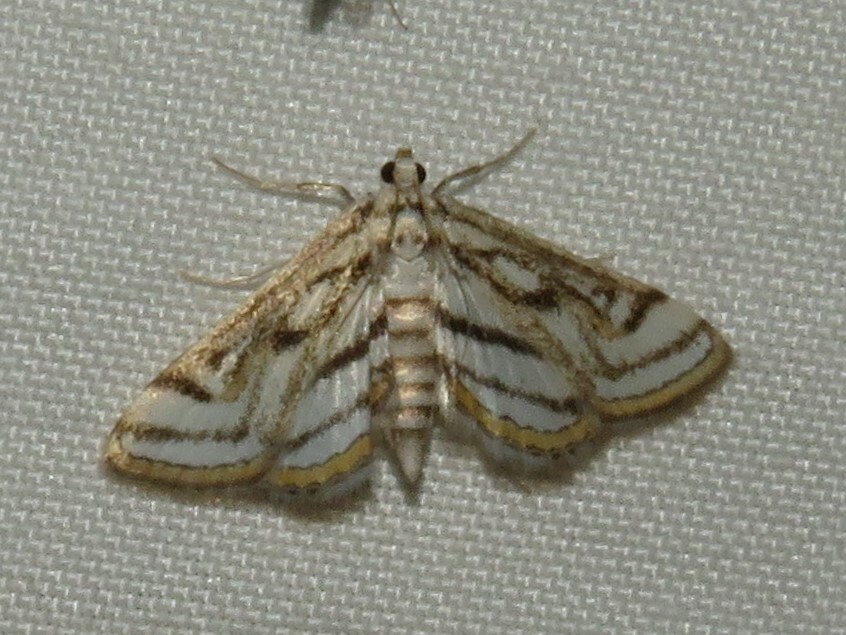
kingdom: Animalia
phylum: Arthropoda
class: Insecta
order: Lepidoptera
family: Crambidae
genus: Parapoynx
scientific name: Parapoynx badiusalis
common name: Chestnut-marked pondweed moth
